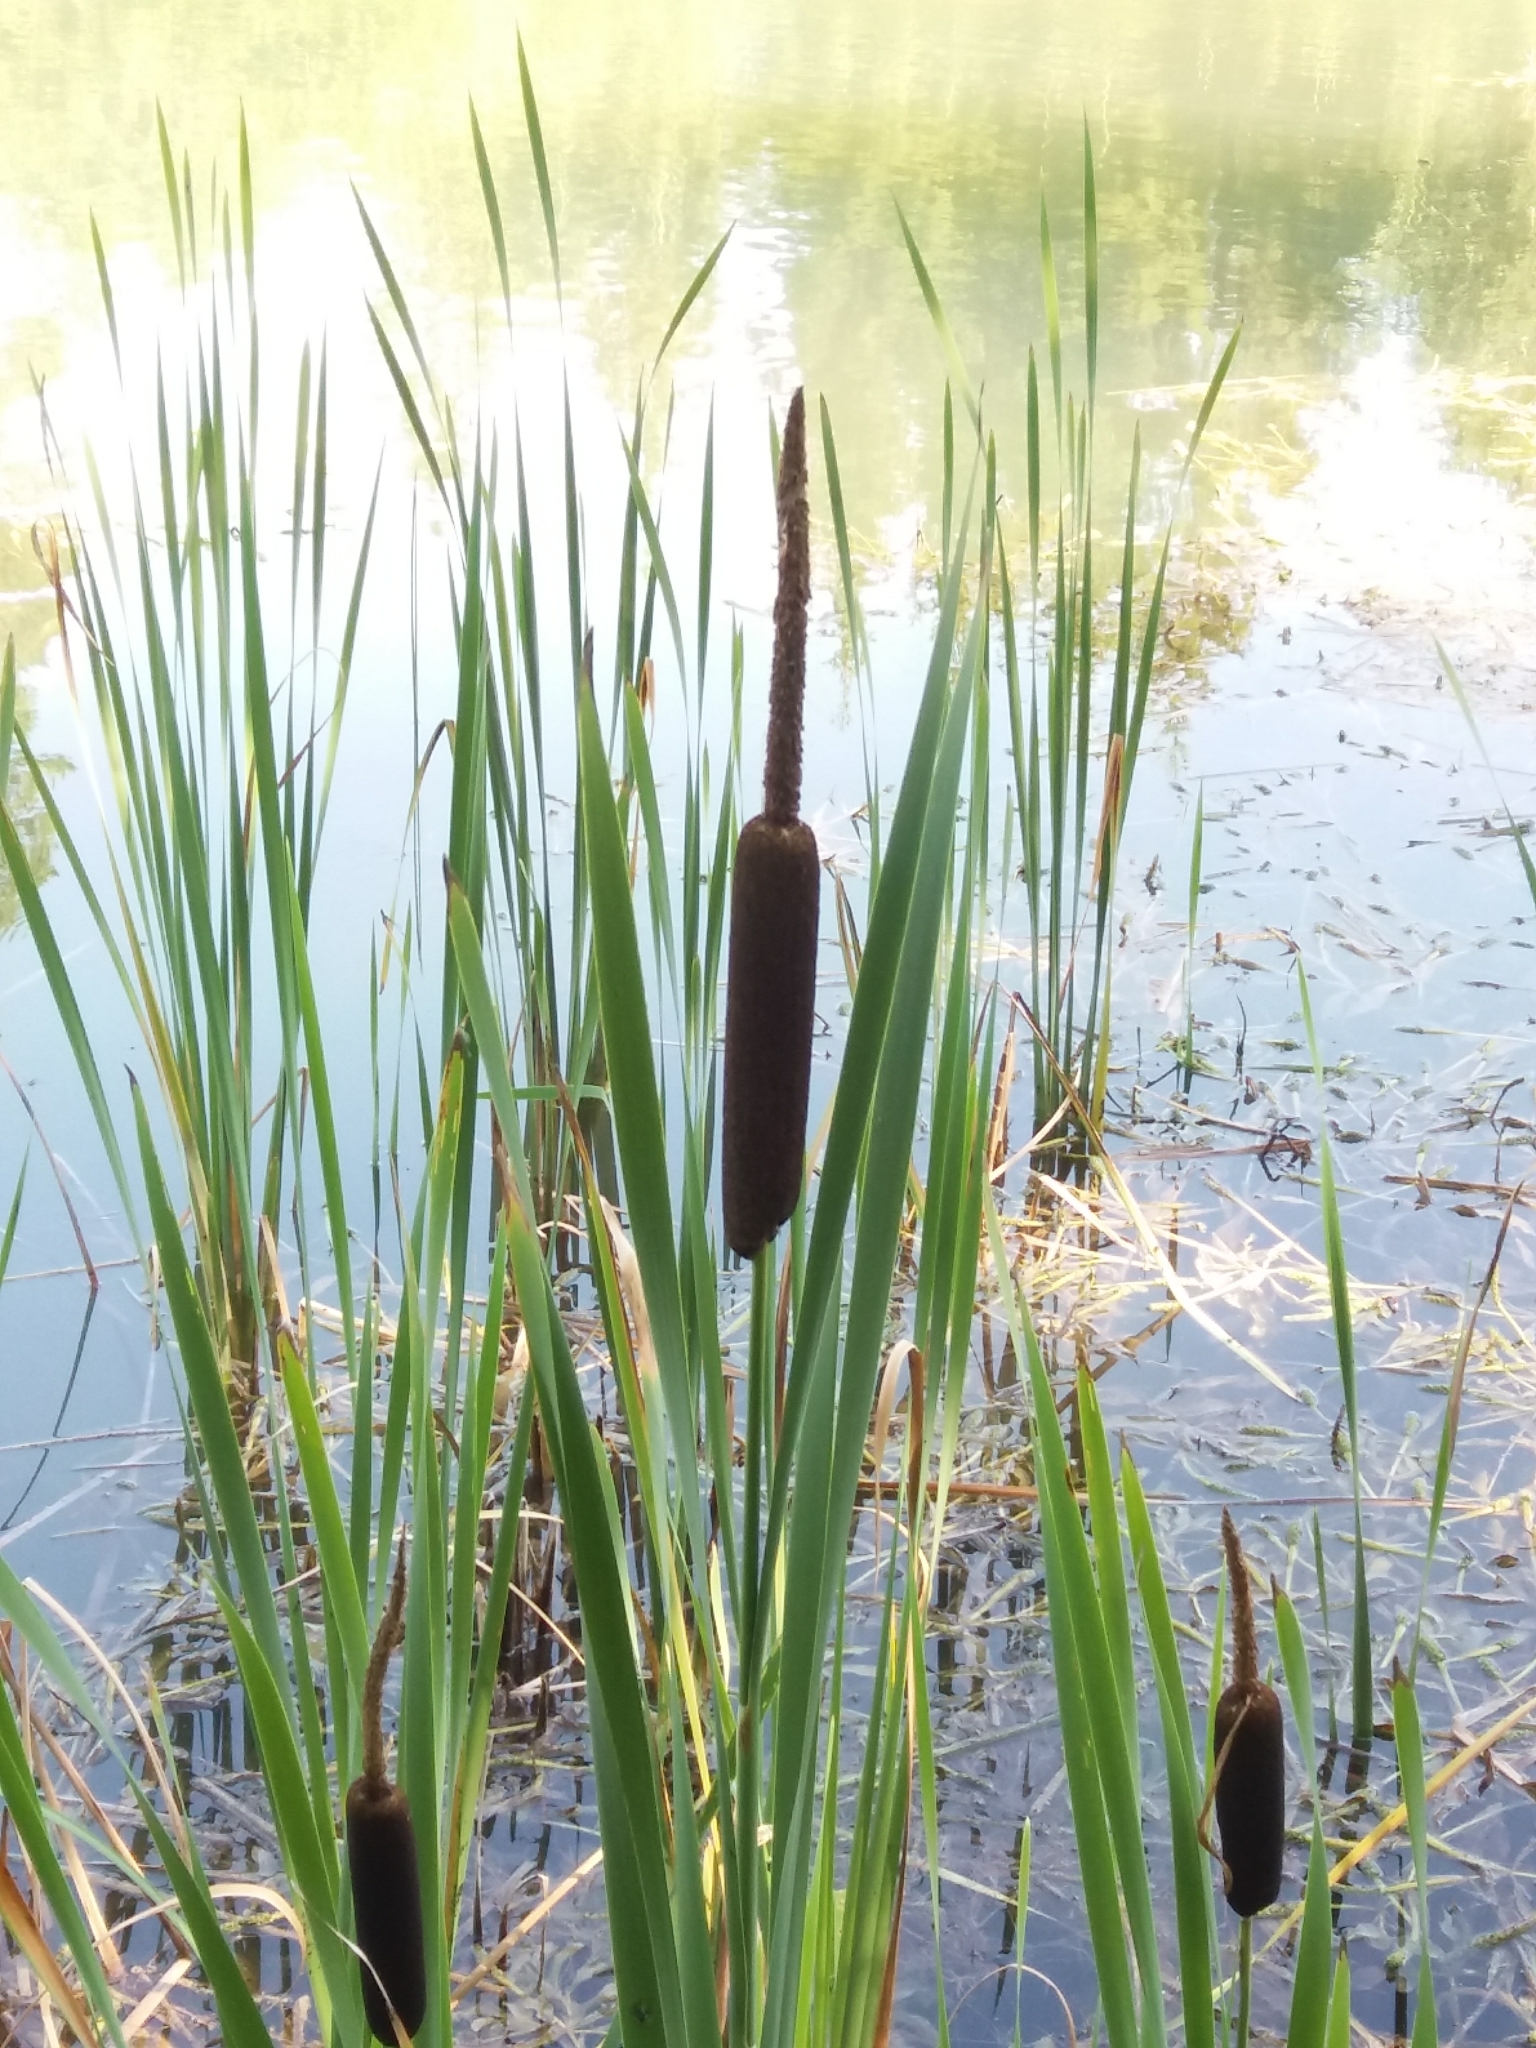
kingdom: Plantae
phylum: Tracheophyta
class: Liliopsida
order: Poales
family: Typhaceae
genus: Typha
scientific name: Typha latifolia
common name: Broadleaf cattail
